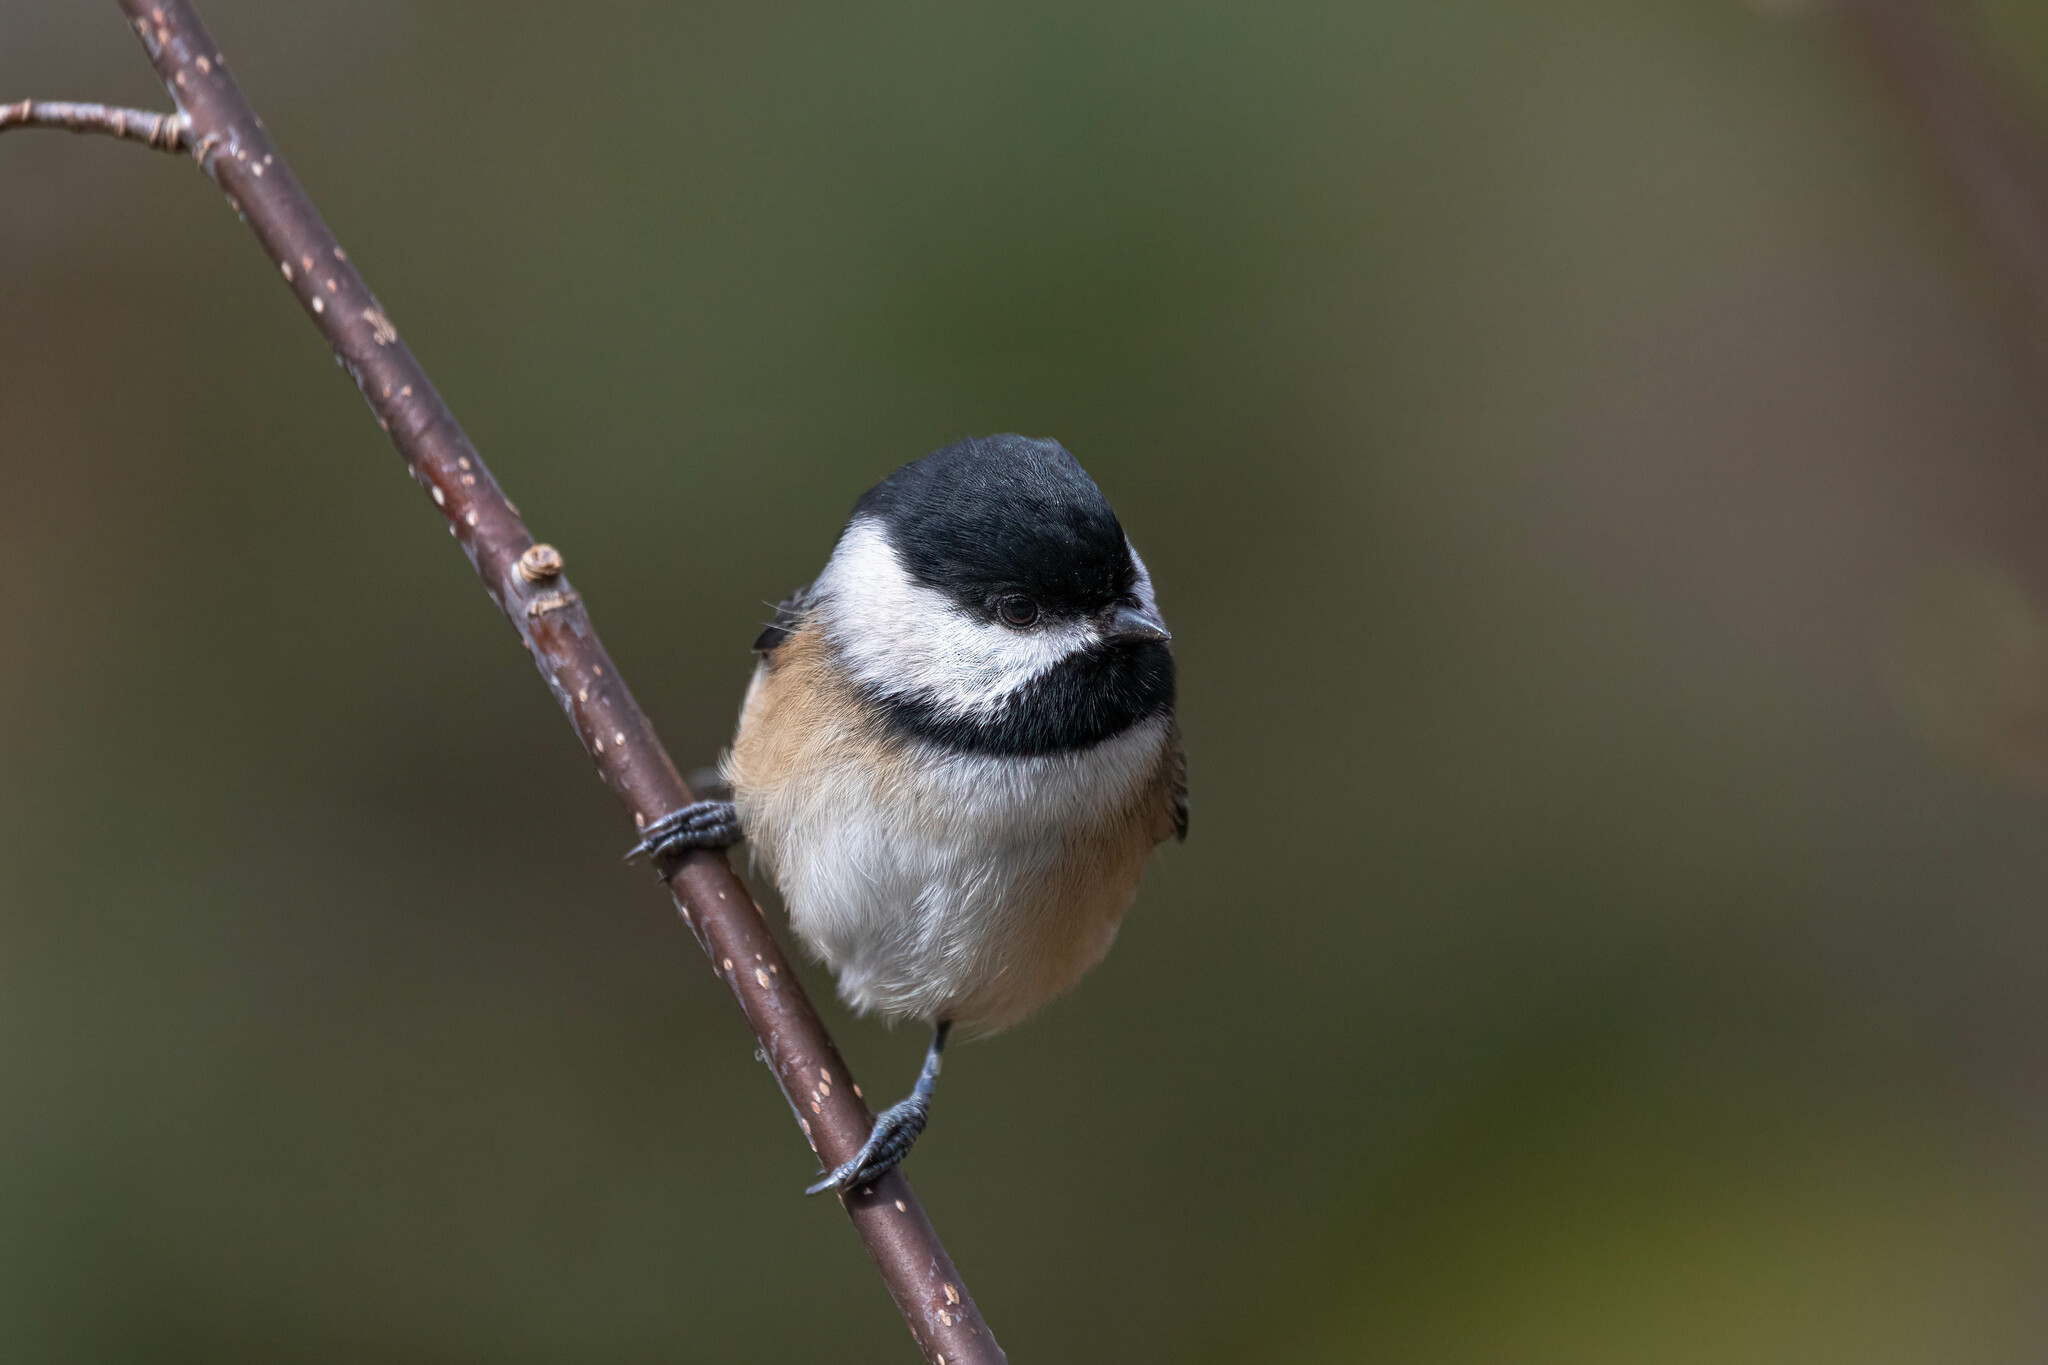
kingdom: Animalia
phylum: Chordata
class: Aves
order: Passeriformes
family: Paridae
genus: Poecile
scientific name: Poecile atricapillus
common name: Black-capped chickadee
